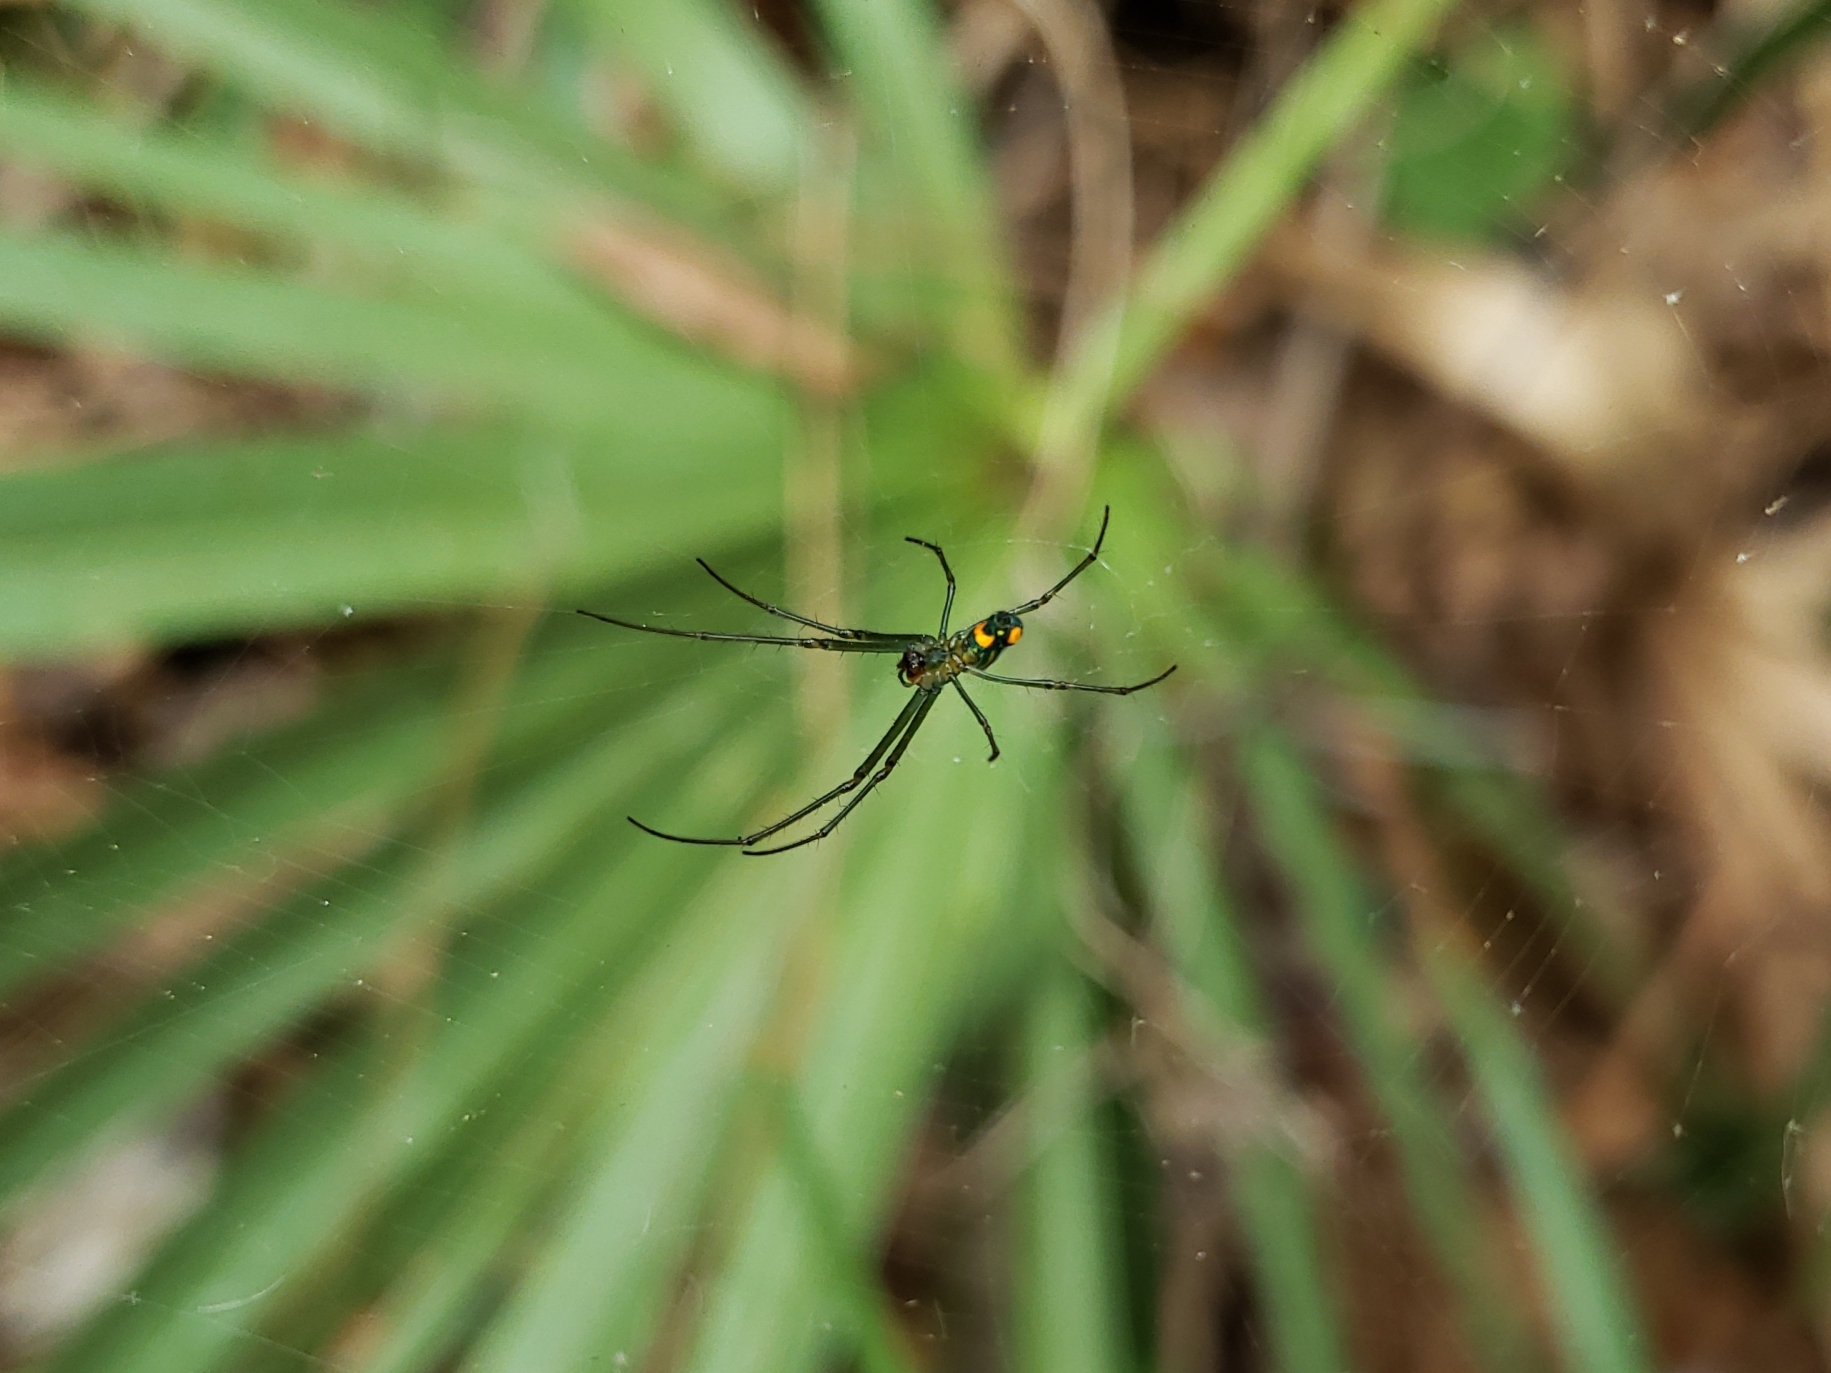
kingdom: Animalia
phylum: Arthropoda
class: Arachnida
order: Araneae
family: Tetragnathidae
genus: Leucauge
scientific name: Leucauge argyrobapta
